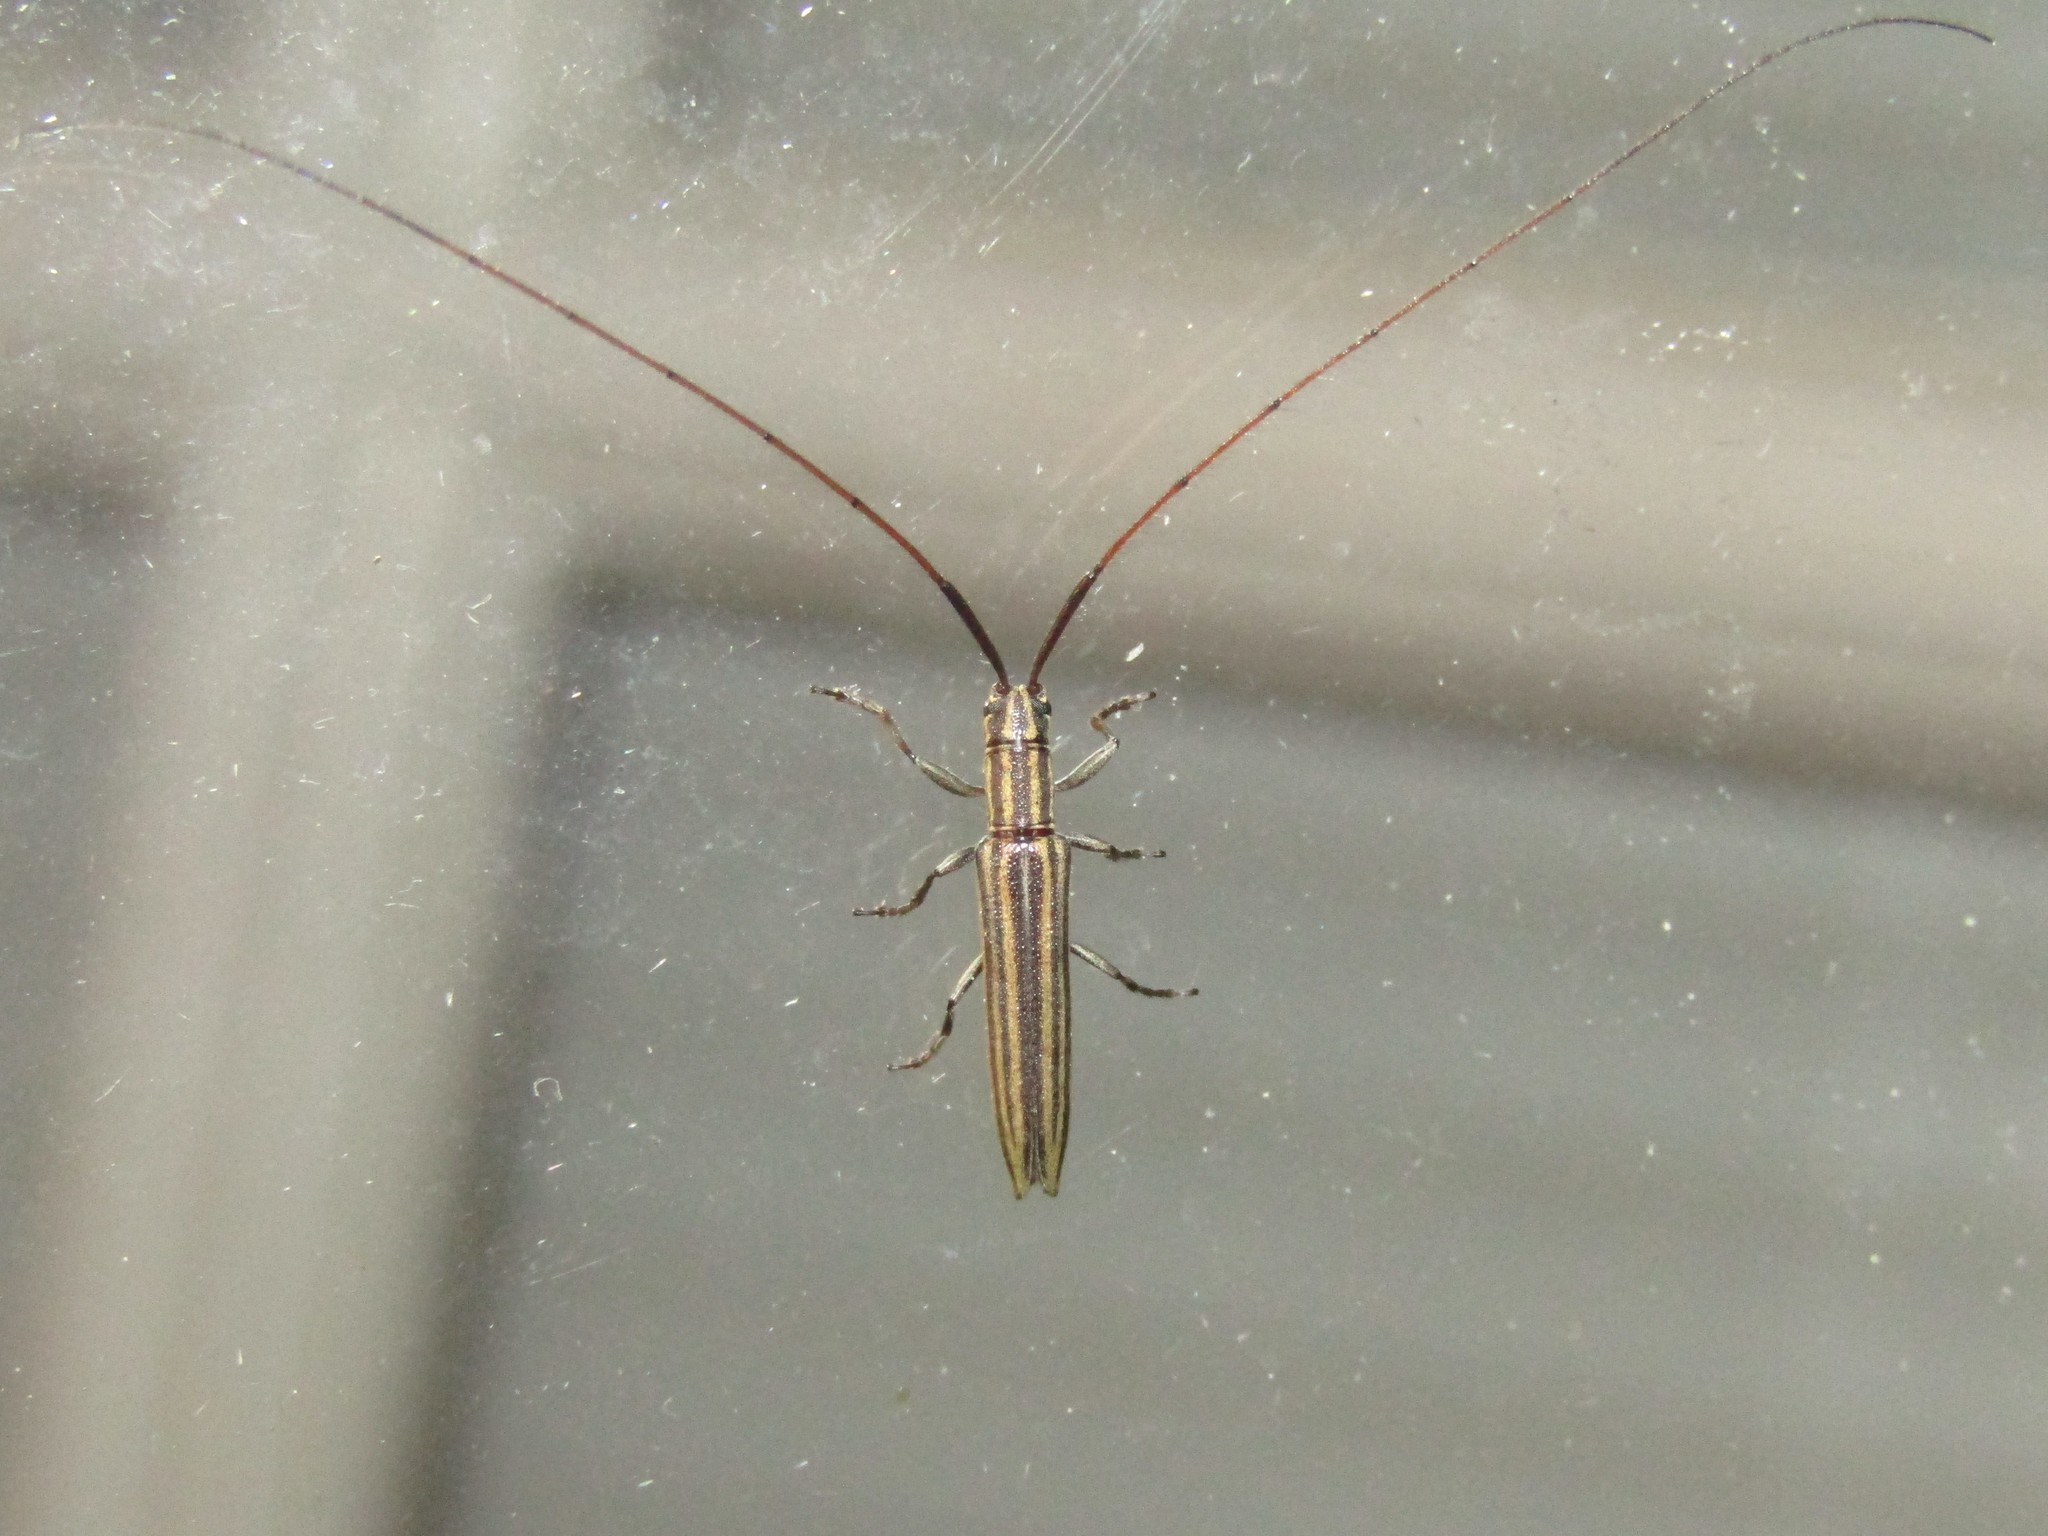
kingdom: Animalia
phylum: Arthropoda
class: Insecta
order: Coleoptera
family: Cerambycidae
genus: Hippopsis
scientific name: Hippopsis
